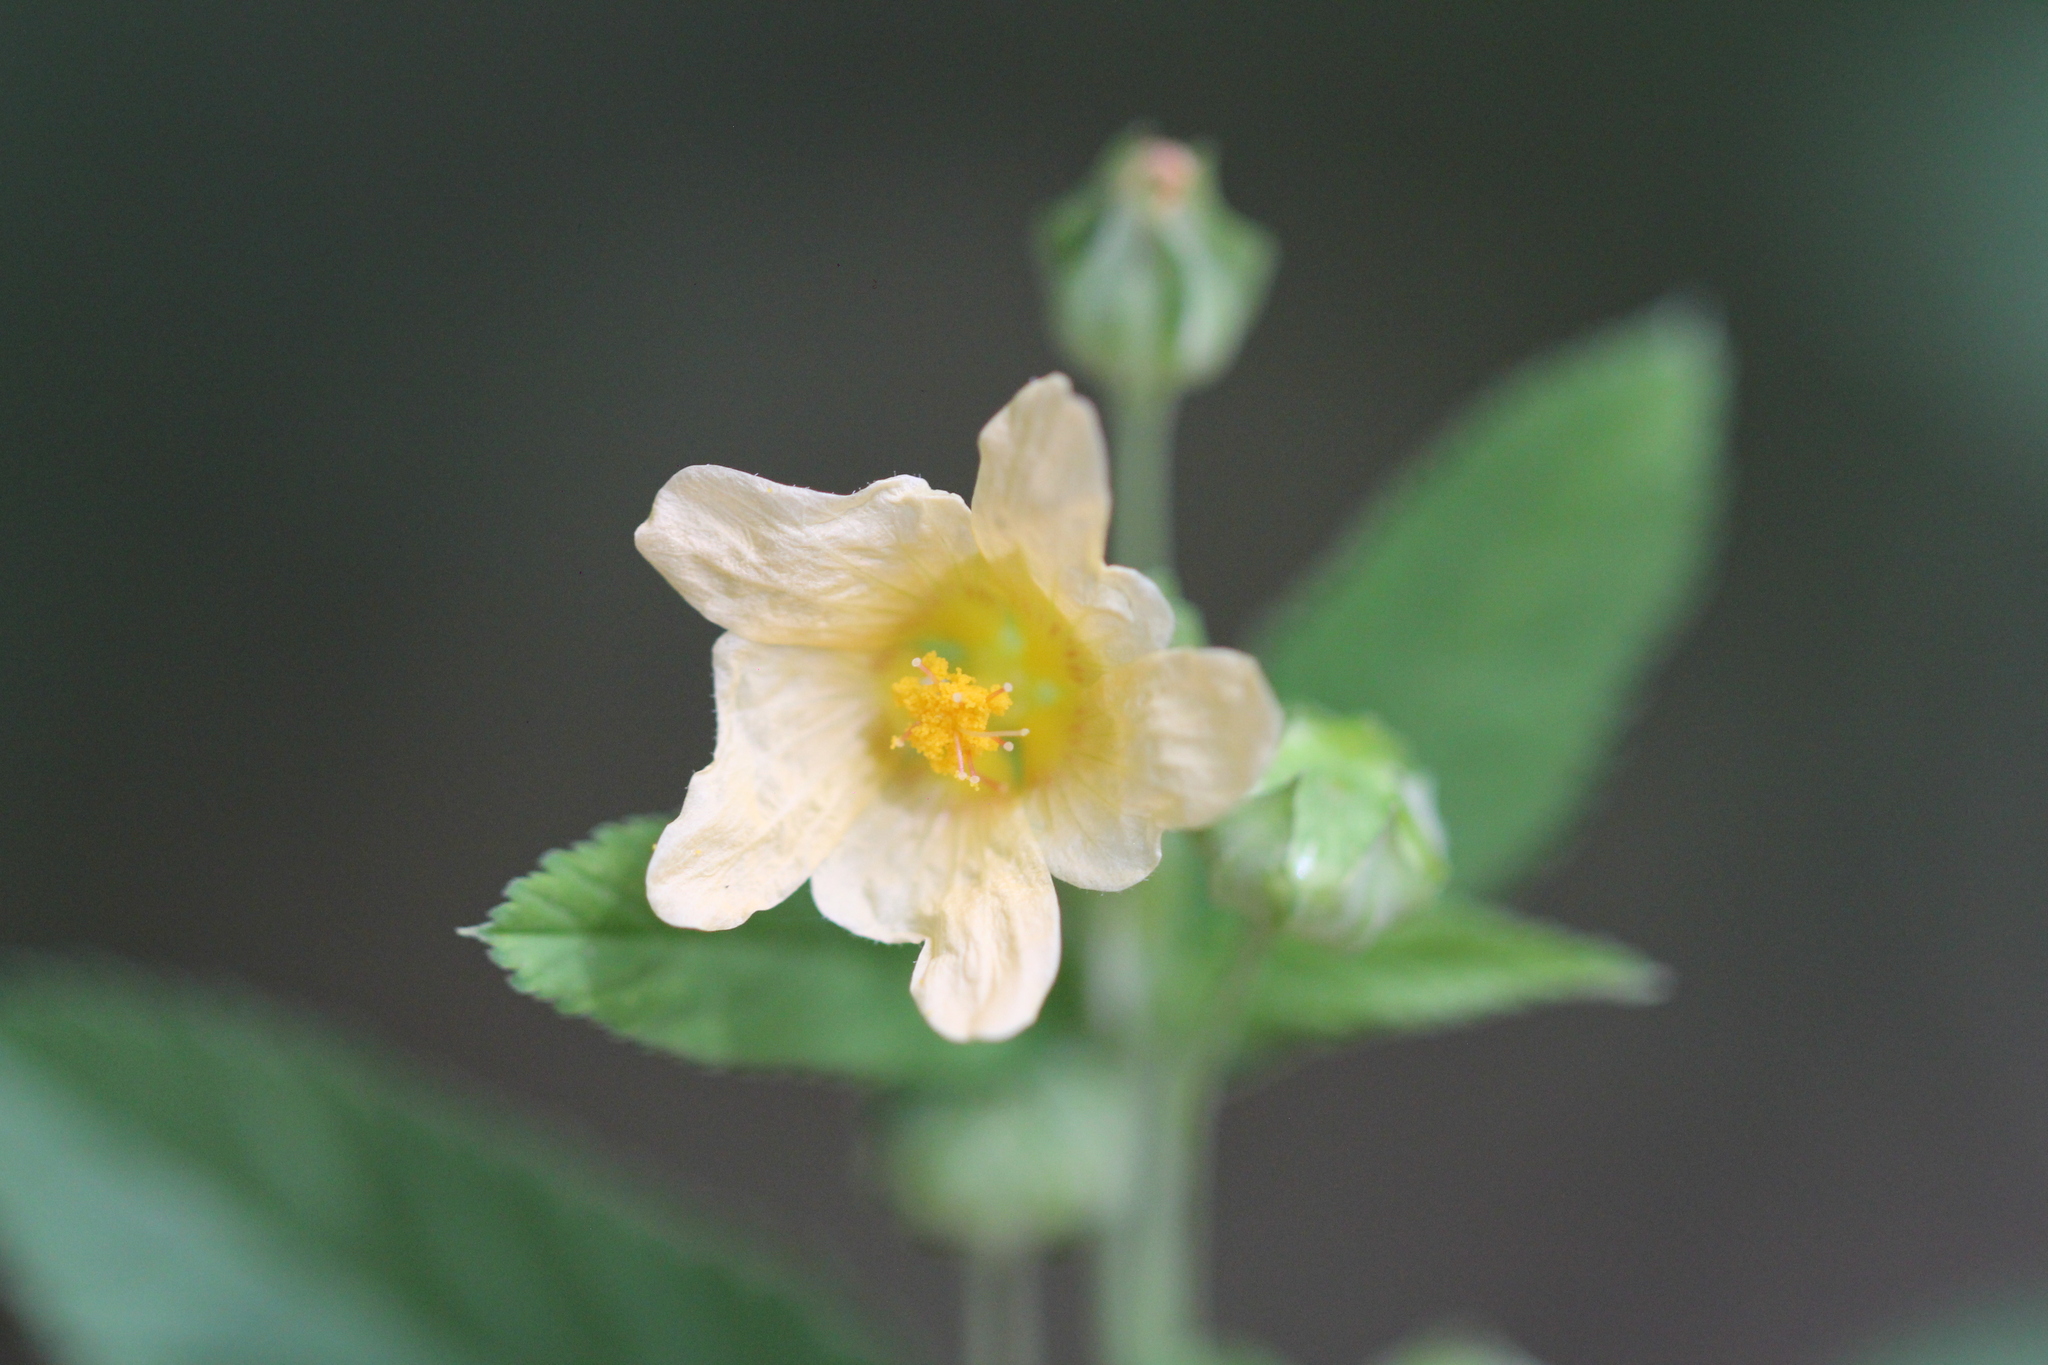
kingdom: Plantae
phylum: Tracheophyta
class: Magnoliopsida
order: Malvales
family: Malvaceae
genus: Sida
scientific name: Sida rhombifolia
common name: Queensland-hemp
